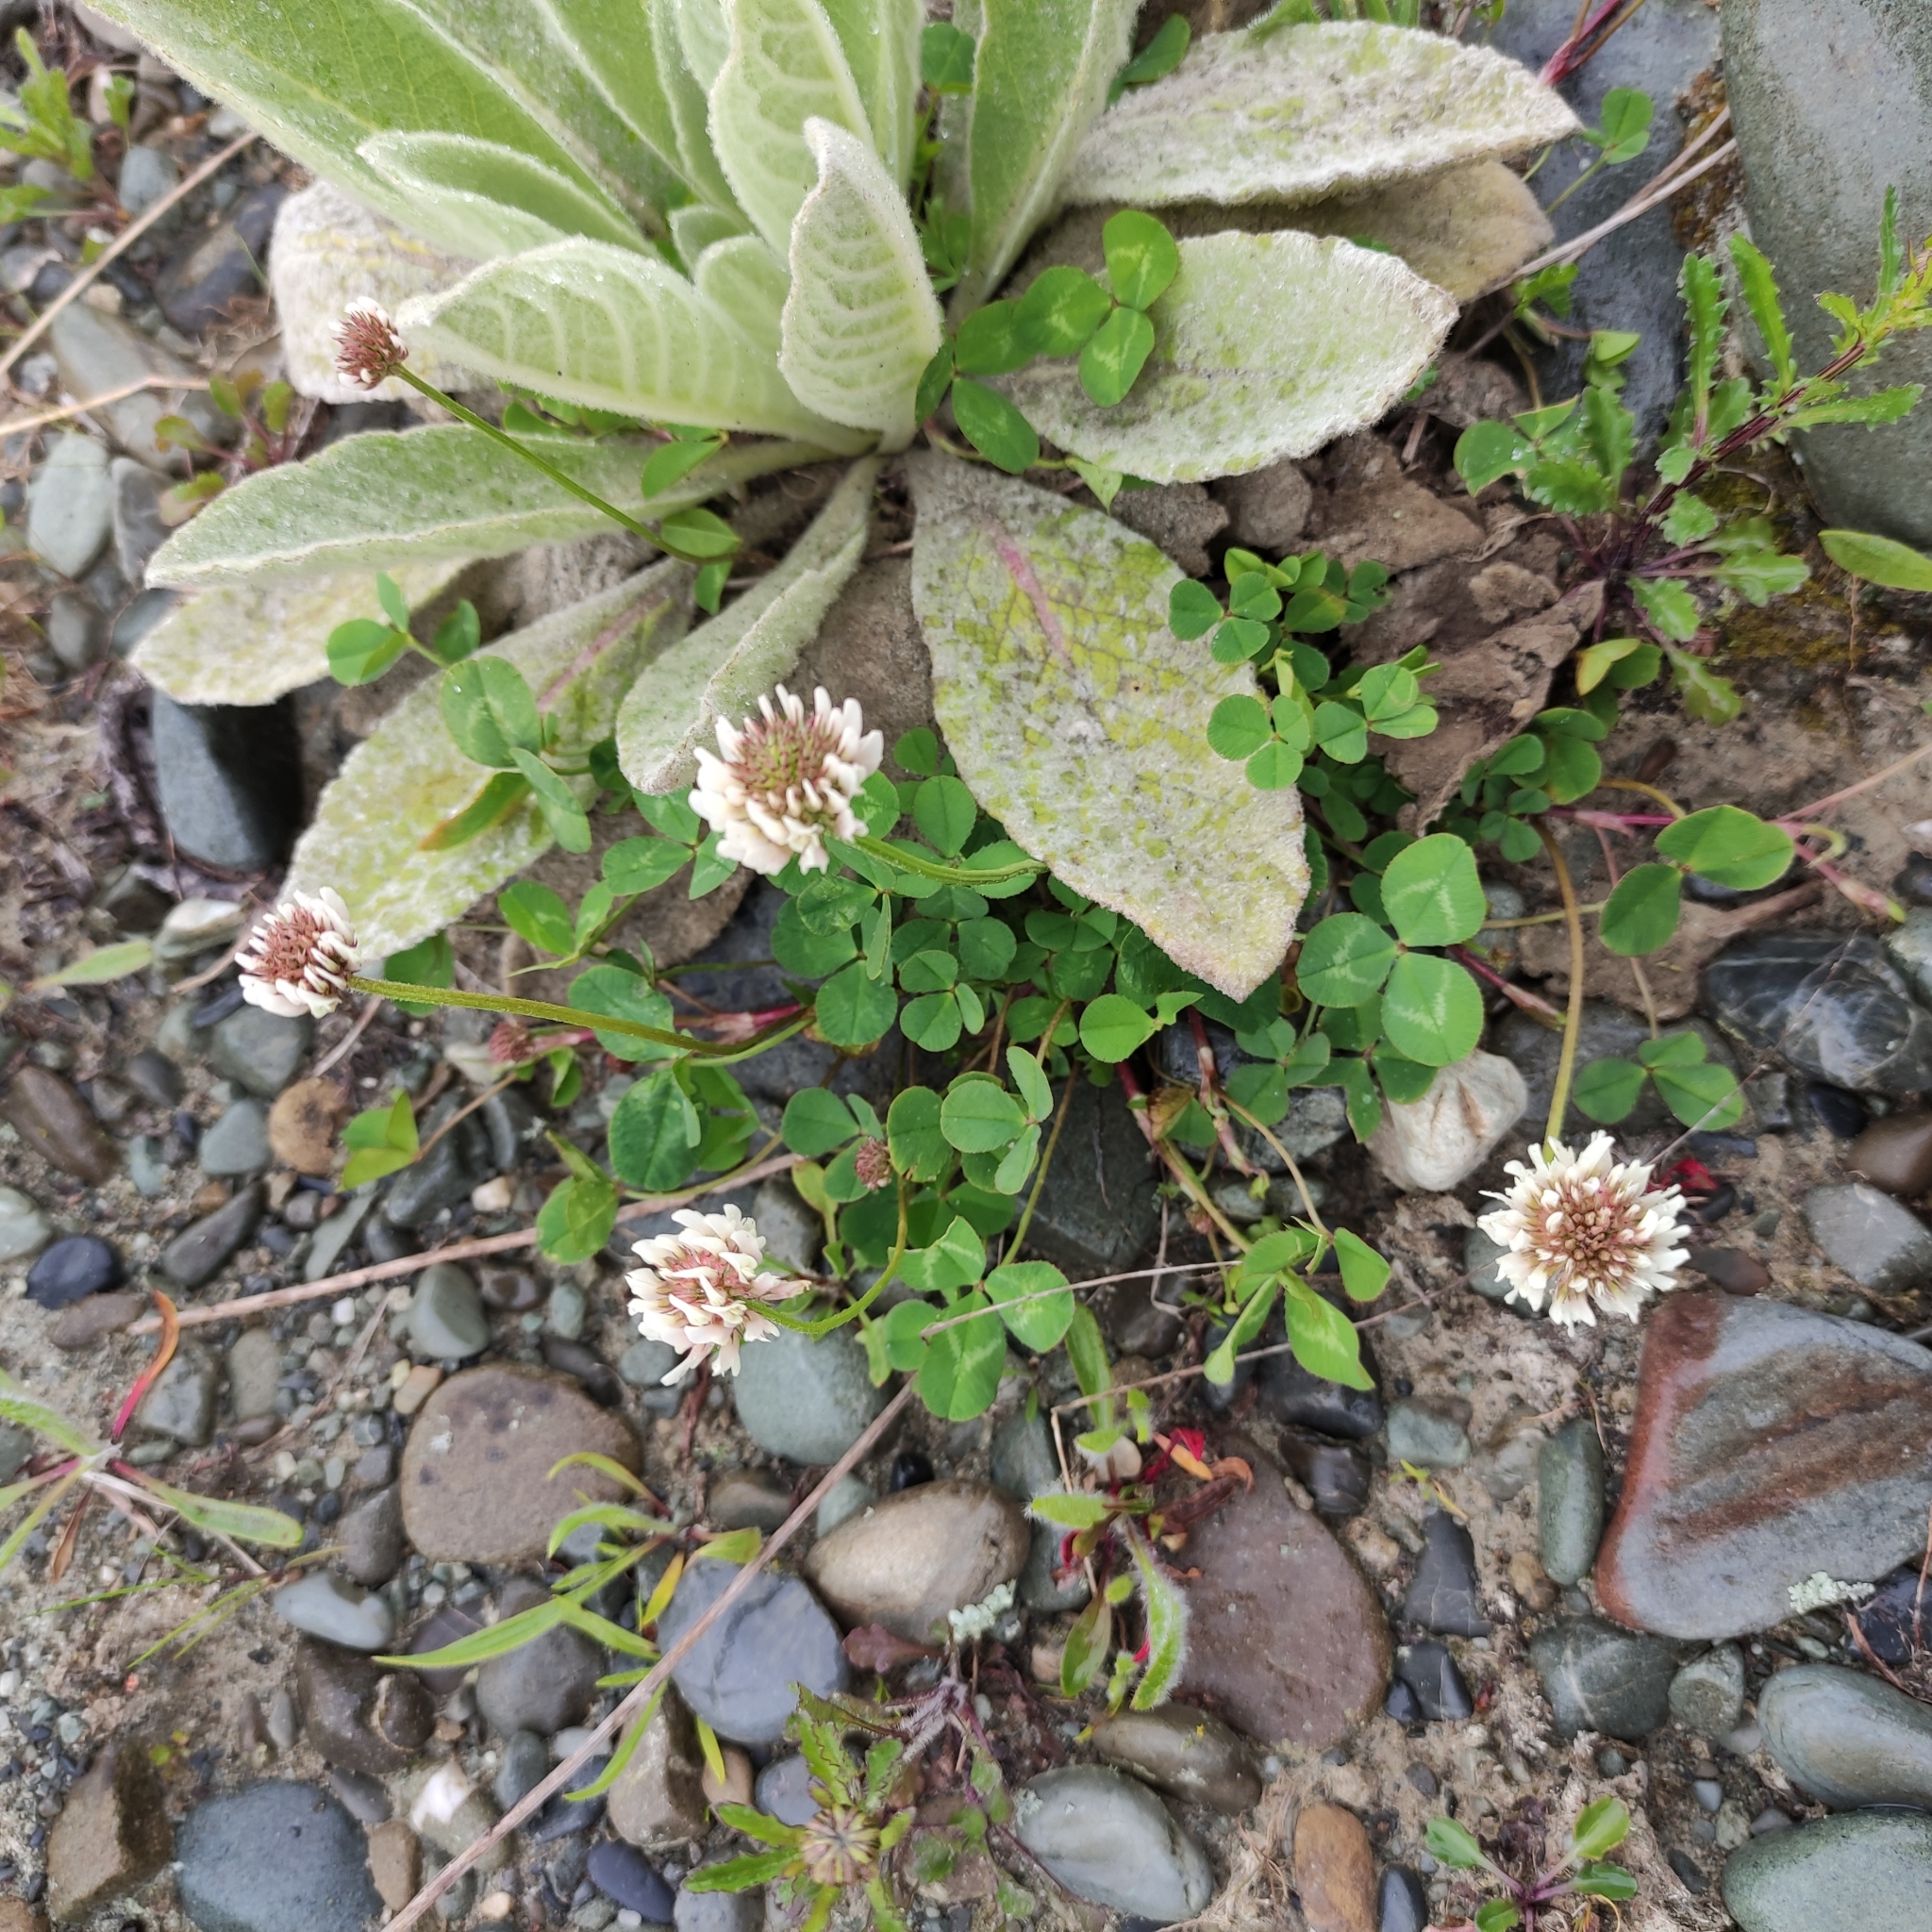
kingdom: Plantae
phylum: Tracheophyta
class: Magnoliopsida
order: Fabales
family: Fabaceae
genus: Trifolium
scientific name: Trifolium repens
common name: White clover
